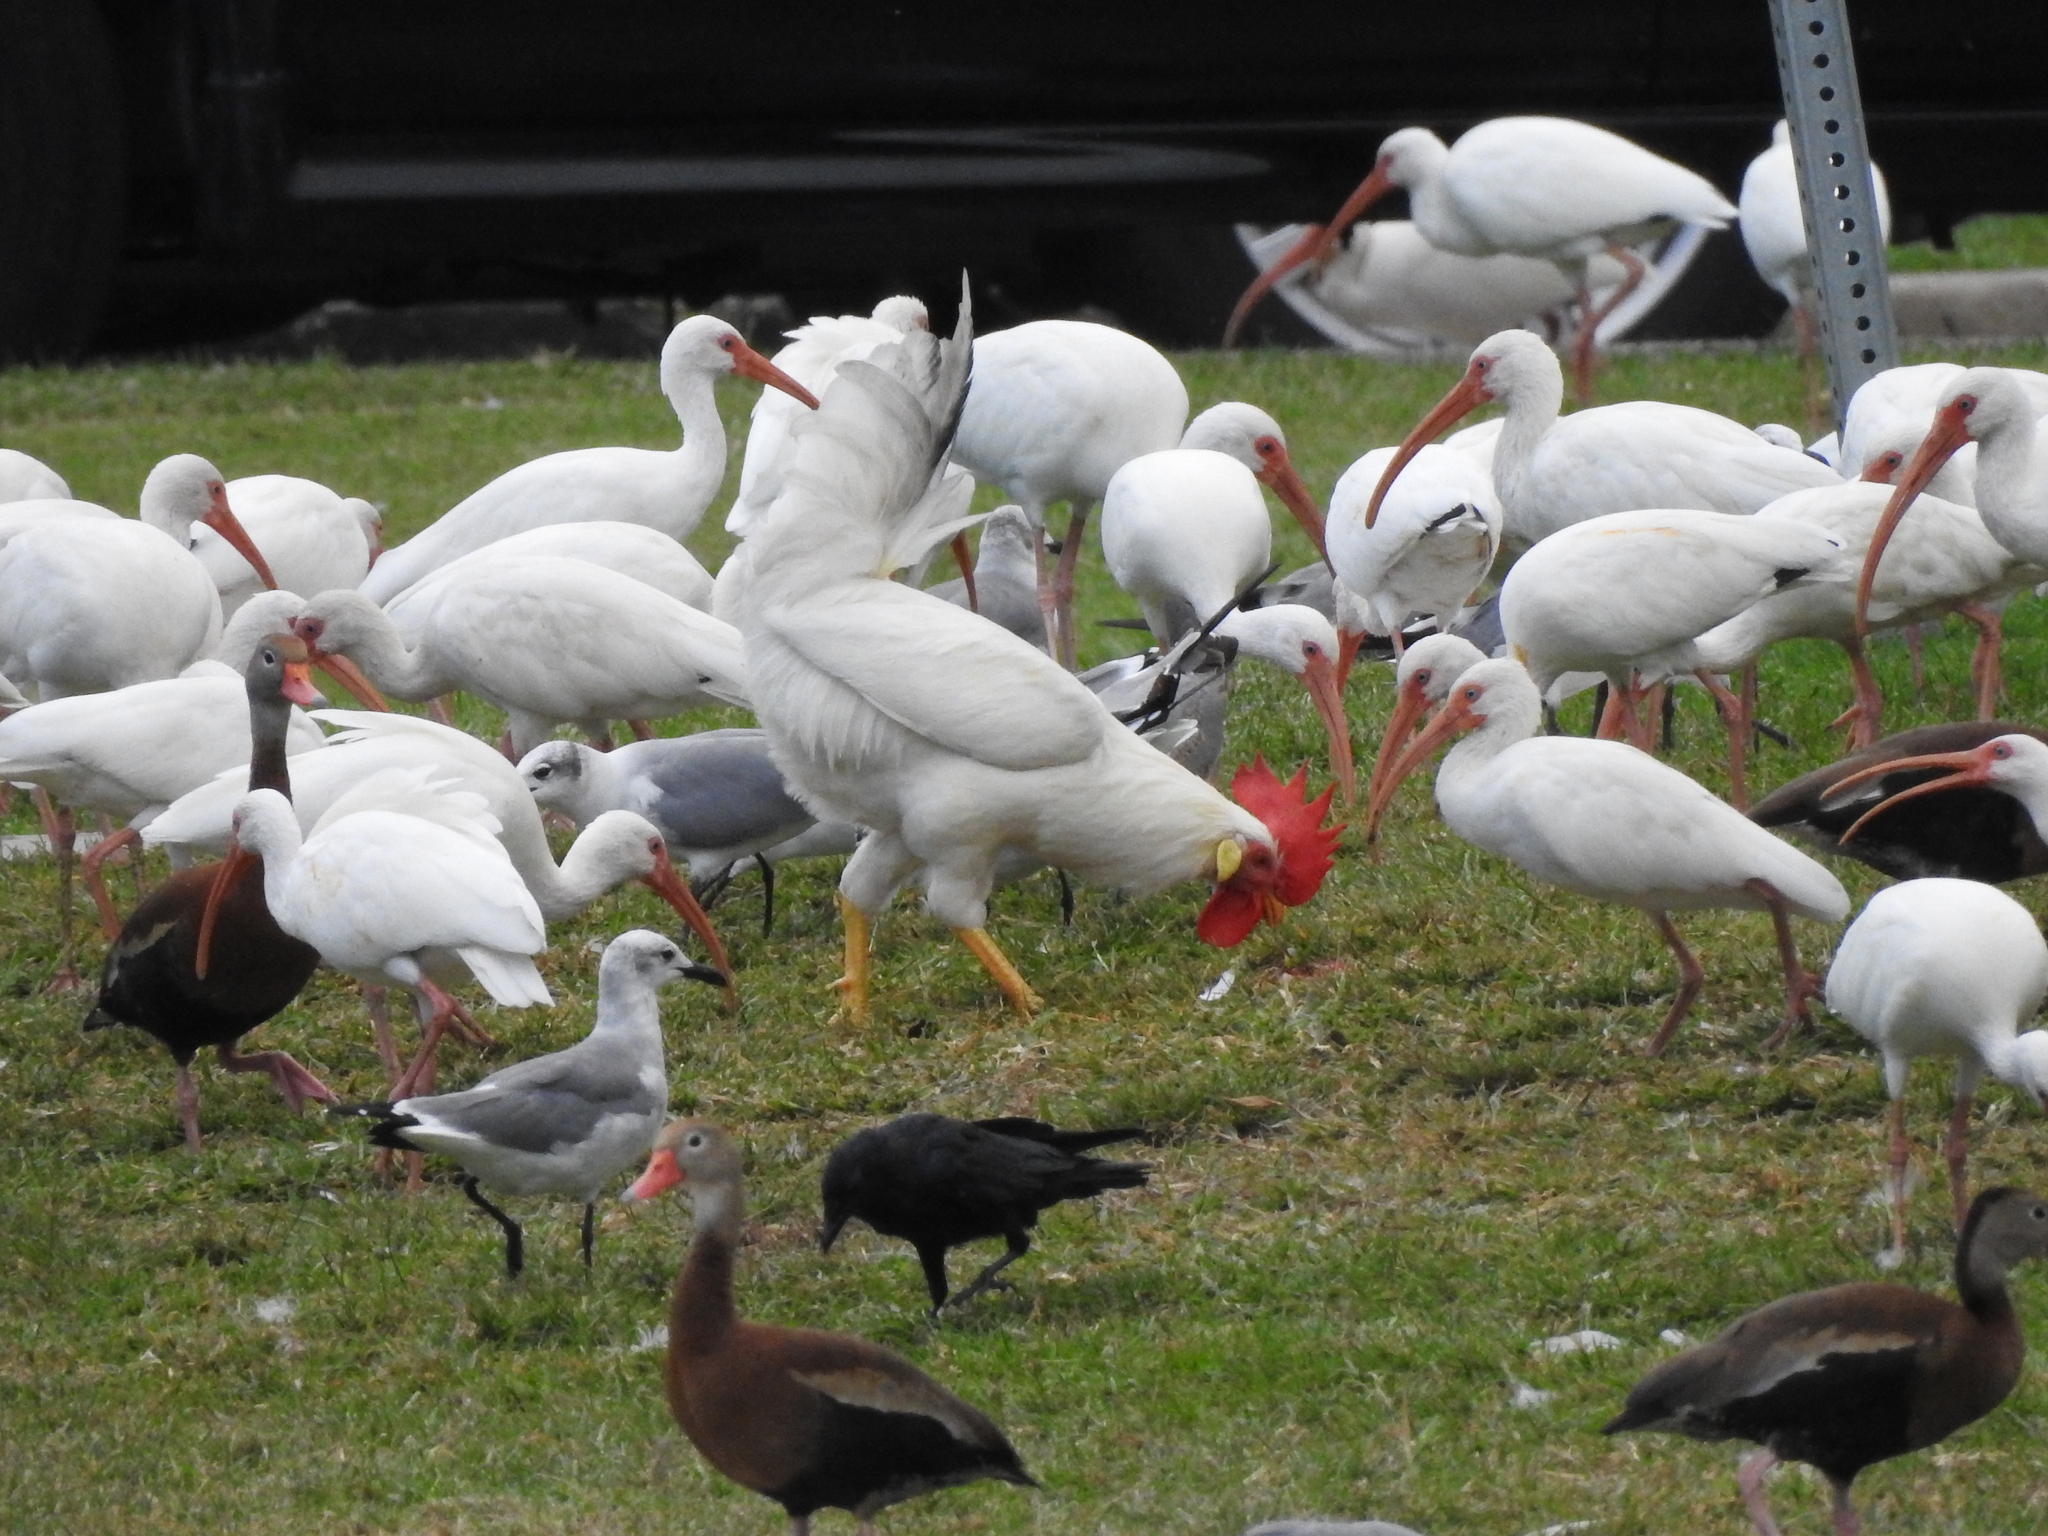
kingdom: Animalia
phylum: Chordata
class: Aves
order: Galliformes
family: Phasianidae
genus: Gallus
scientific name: Gallus gallus
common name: Red junglefowl
